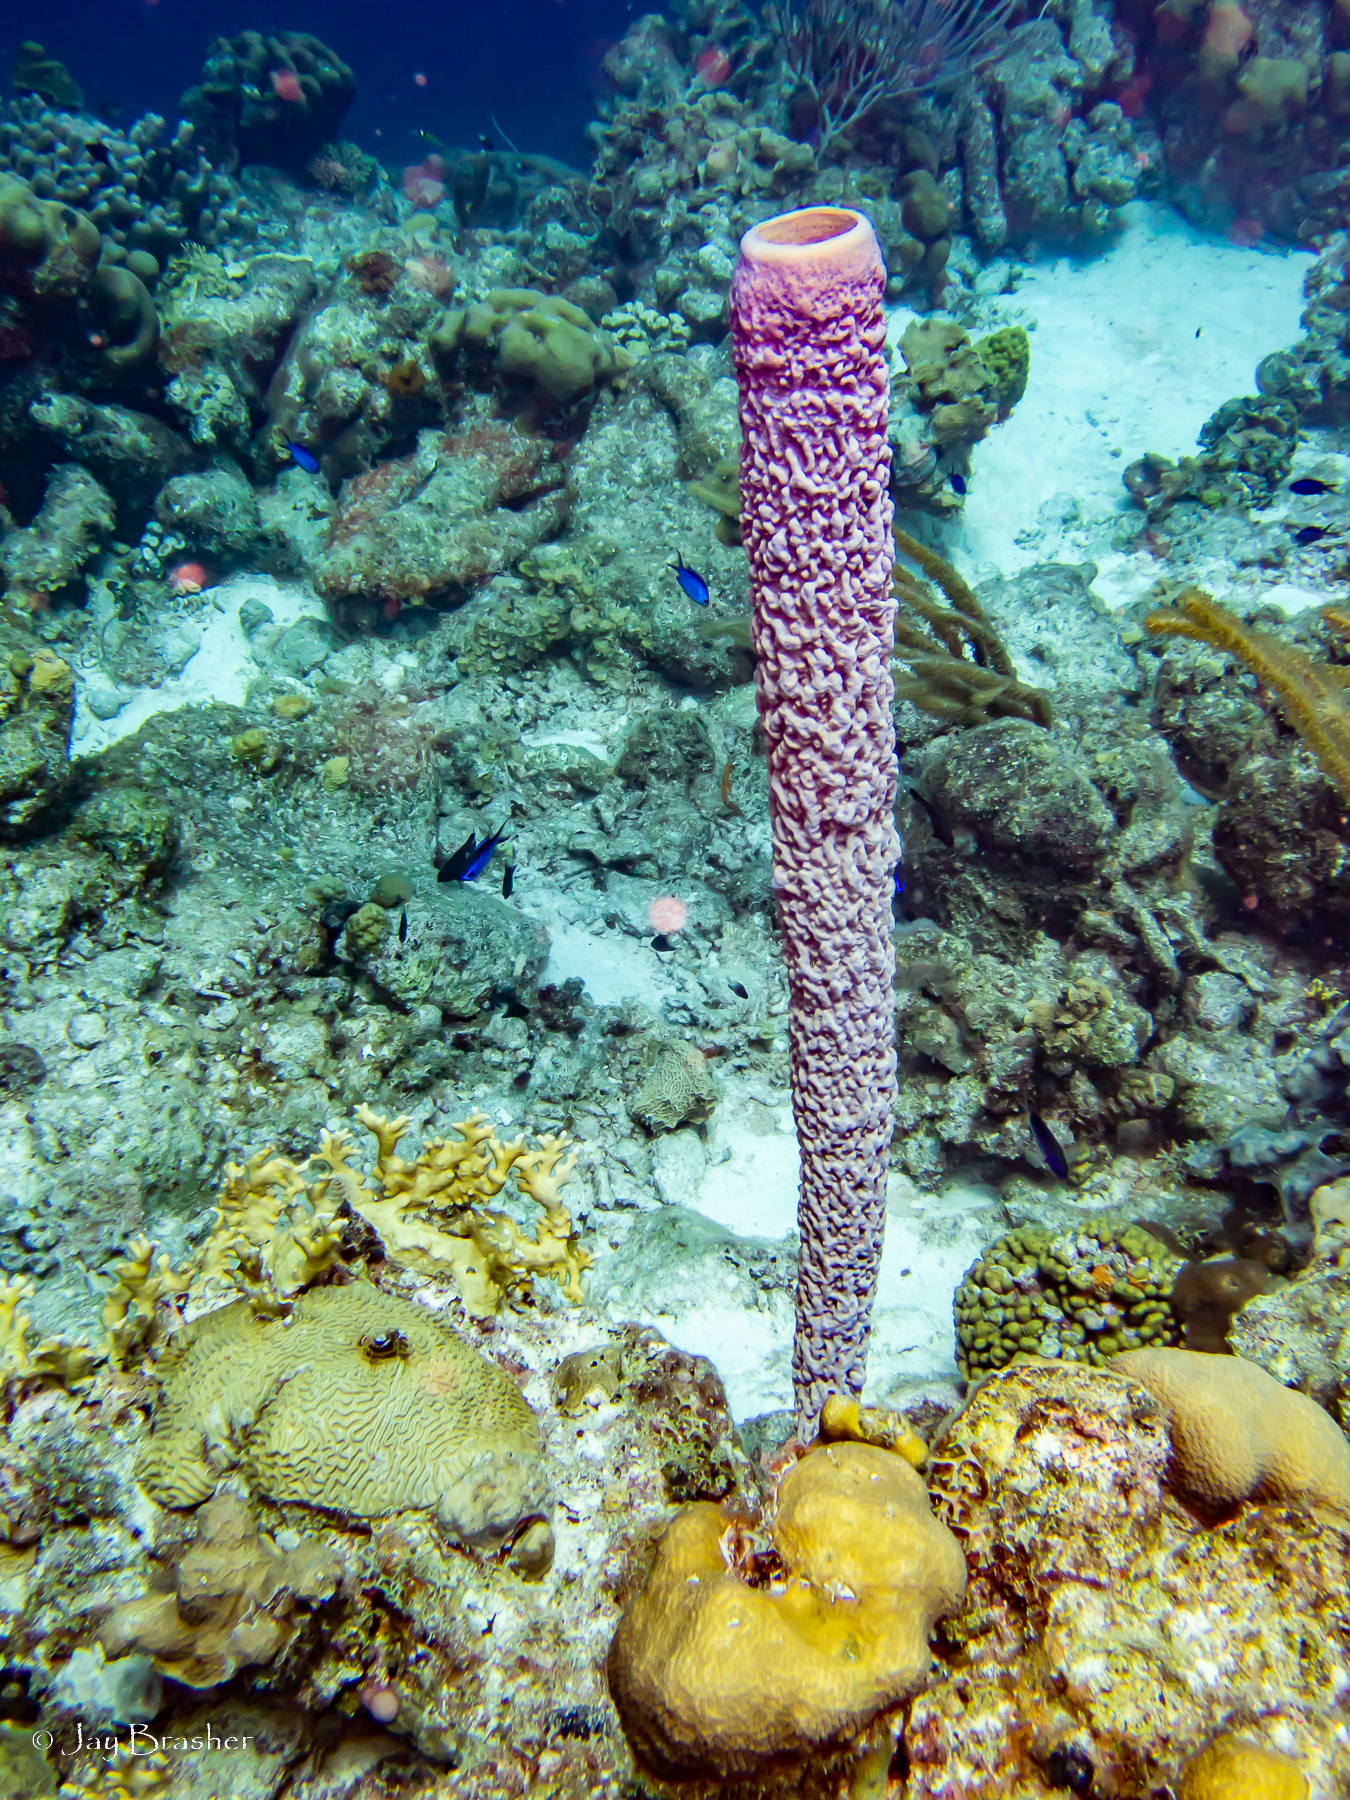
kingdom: Animalia
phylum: Porifera
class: Demospongiae
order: Verongiida
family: Aplysinidae
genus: Aplysina
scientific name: Aplysina archeri
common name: Stove-pipe sponge
